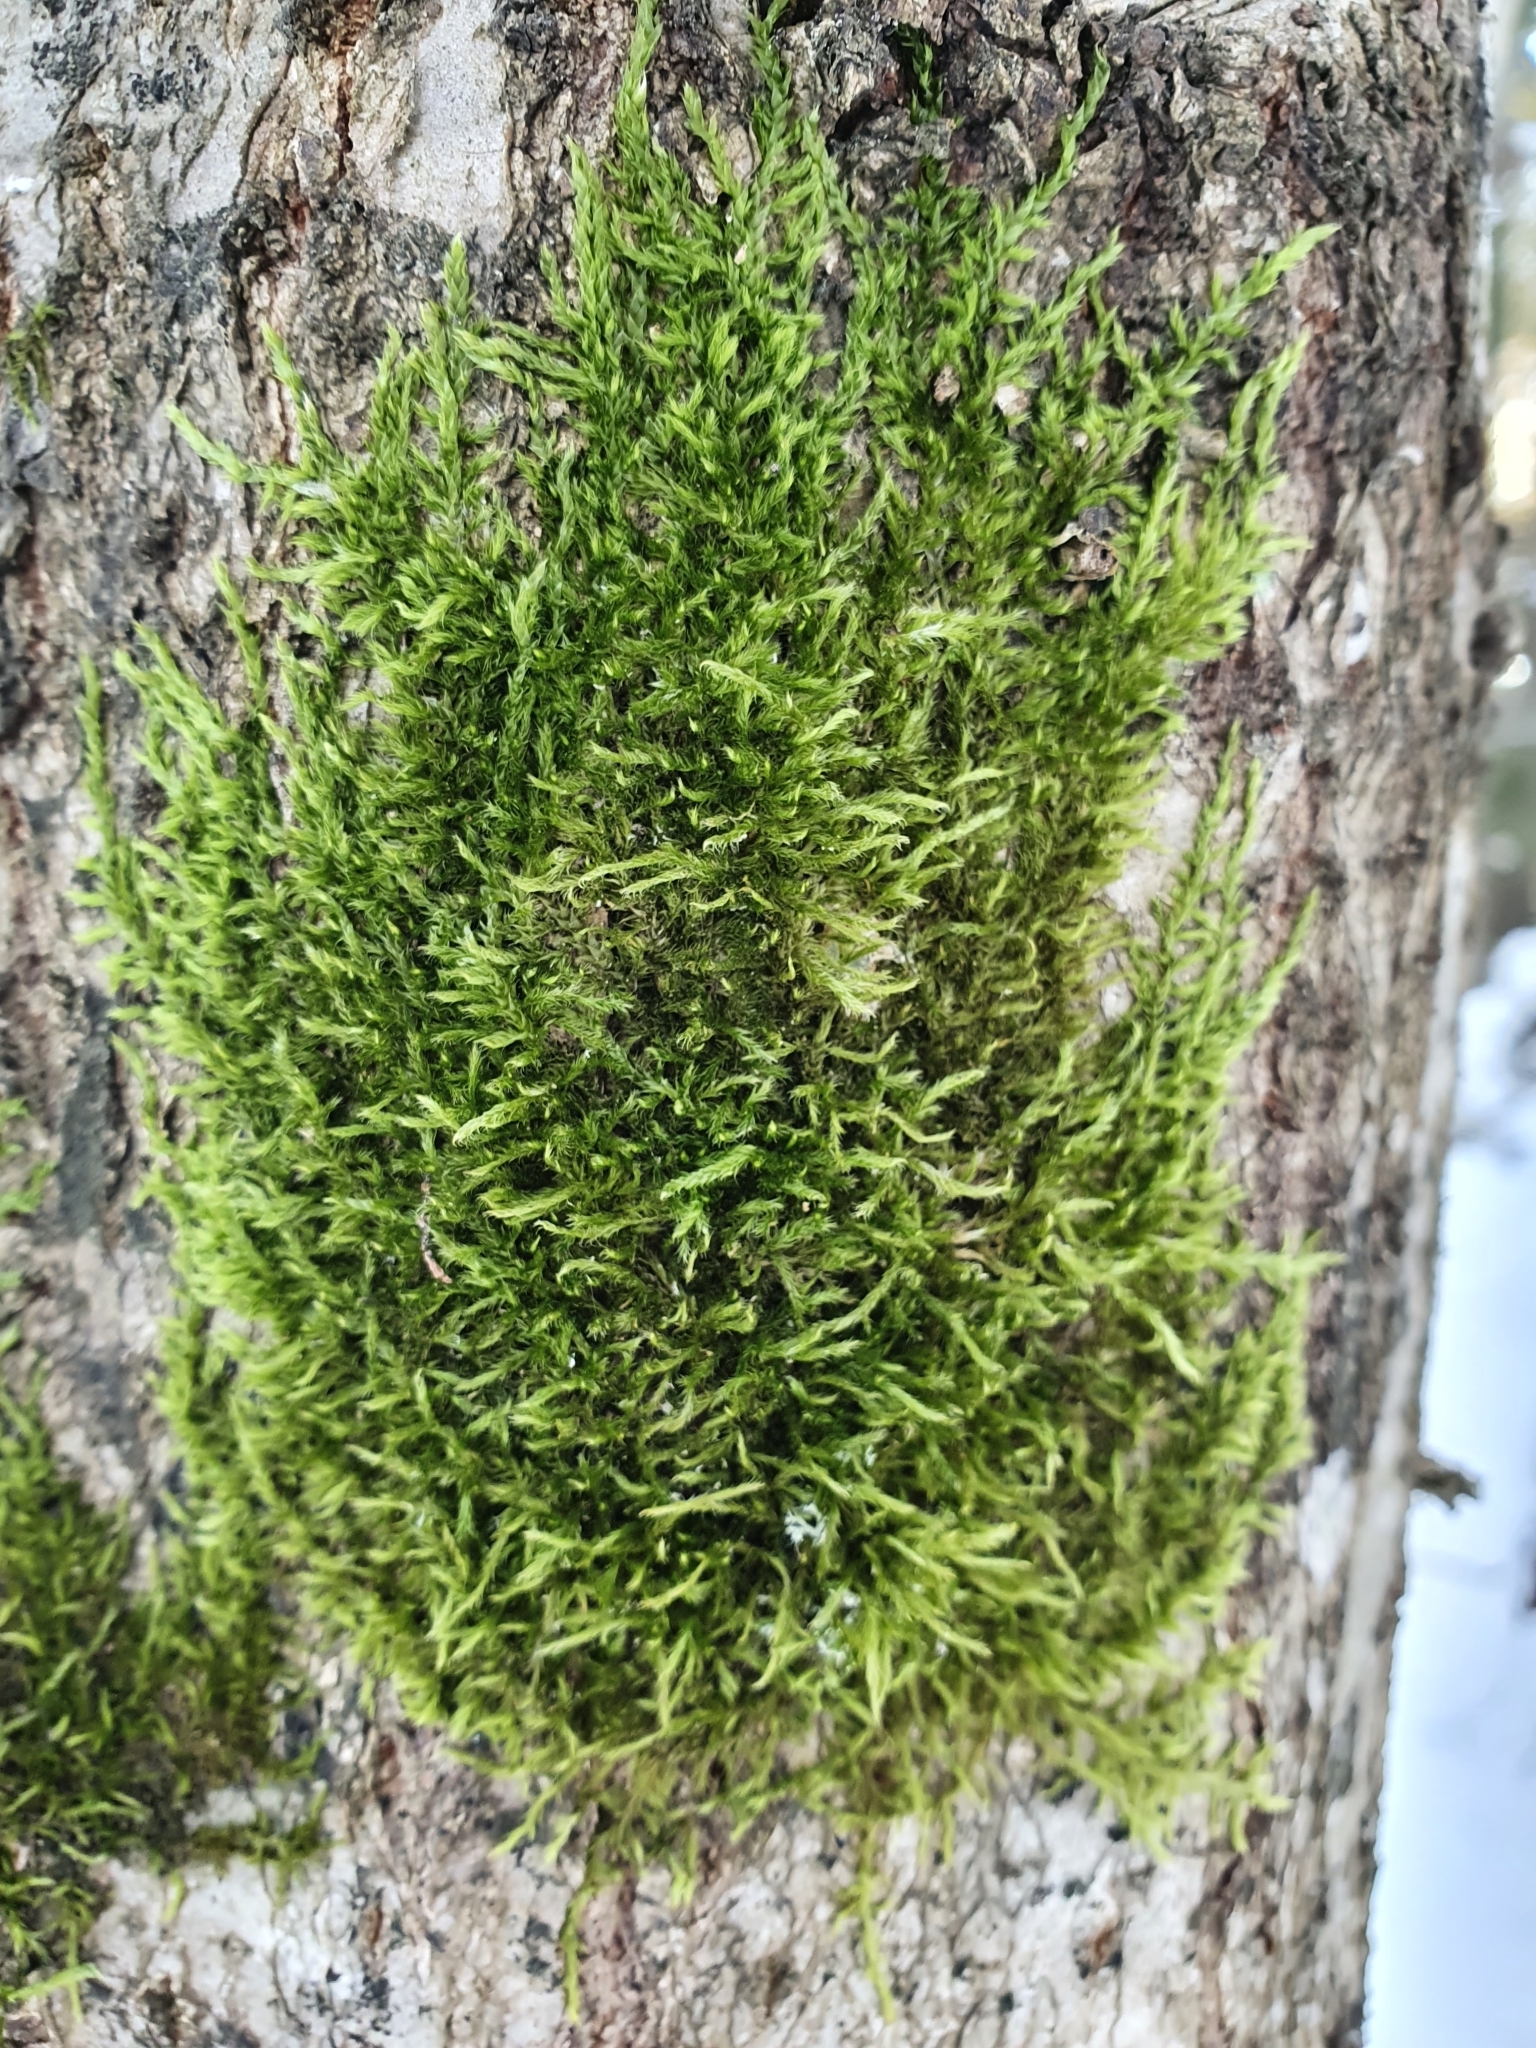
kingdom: Plantae
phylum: Bryophyta
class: Bryopsida
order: Hypnales
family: Hypnaceae
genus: Hypnum
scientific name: Hypnum cupressiforme
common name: Cypress-leaved plait-moss
